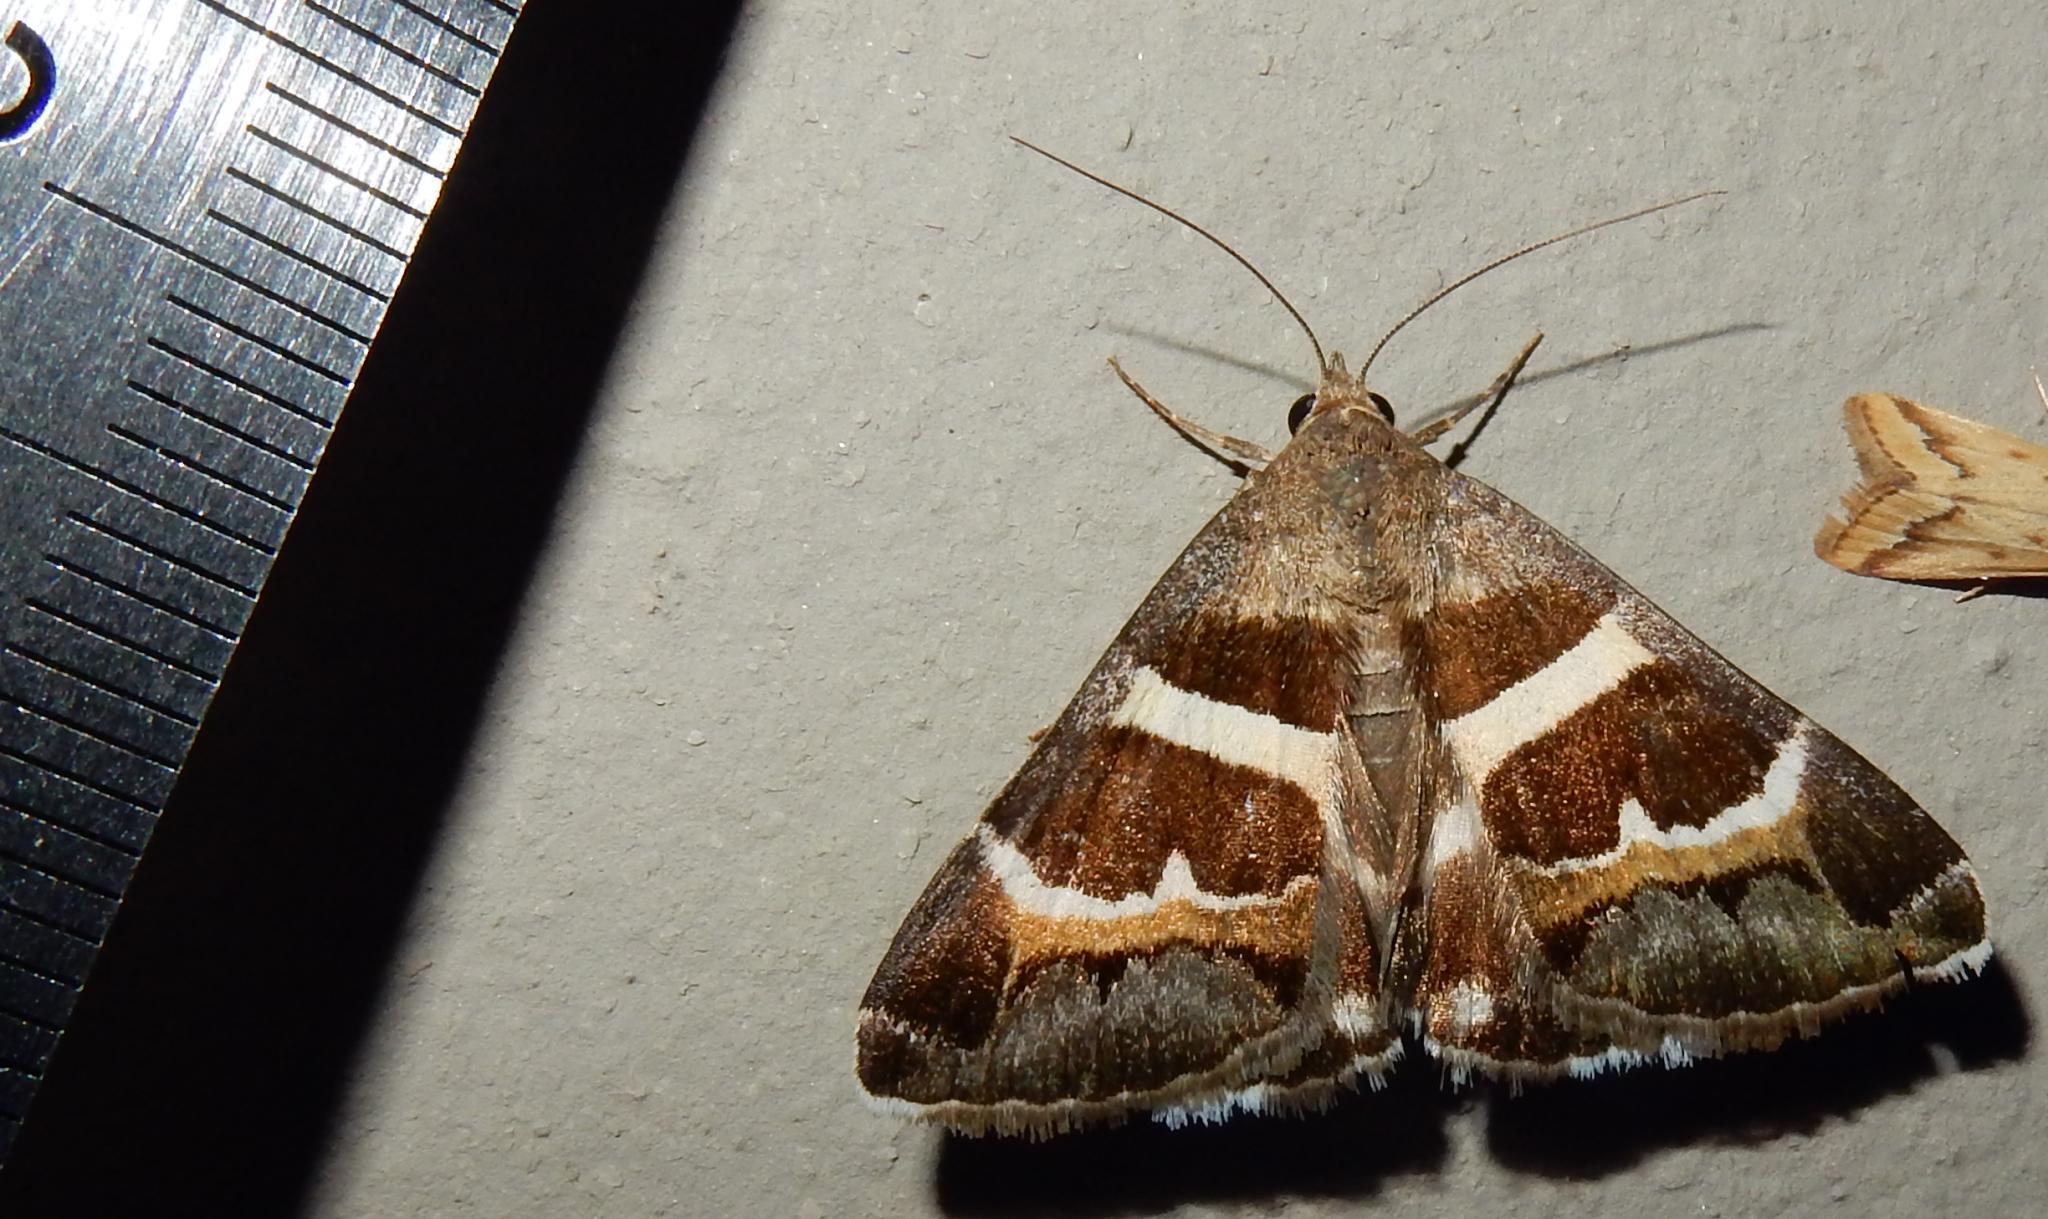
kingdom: Animalia
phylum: Arthropoda
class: Insecta
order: Lepidoptera
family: Erebidae
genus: Grammodes
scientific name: Grammodes stolida
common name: Geometrician
